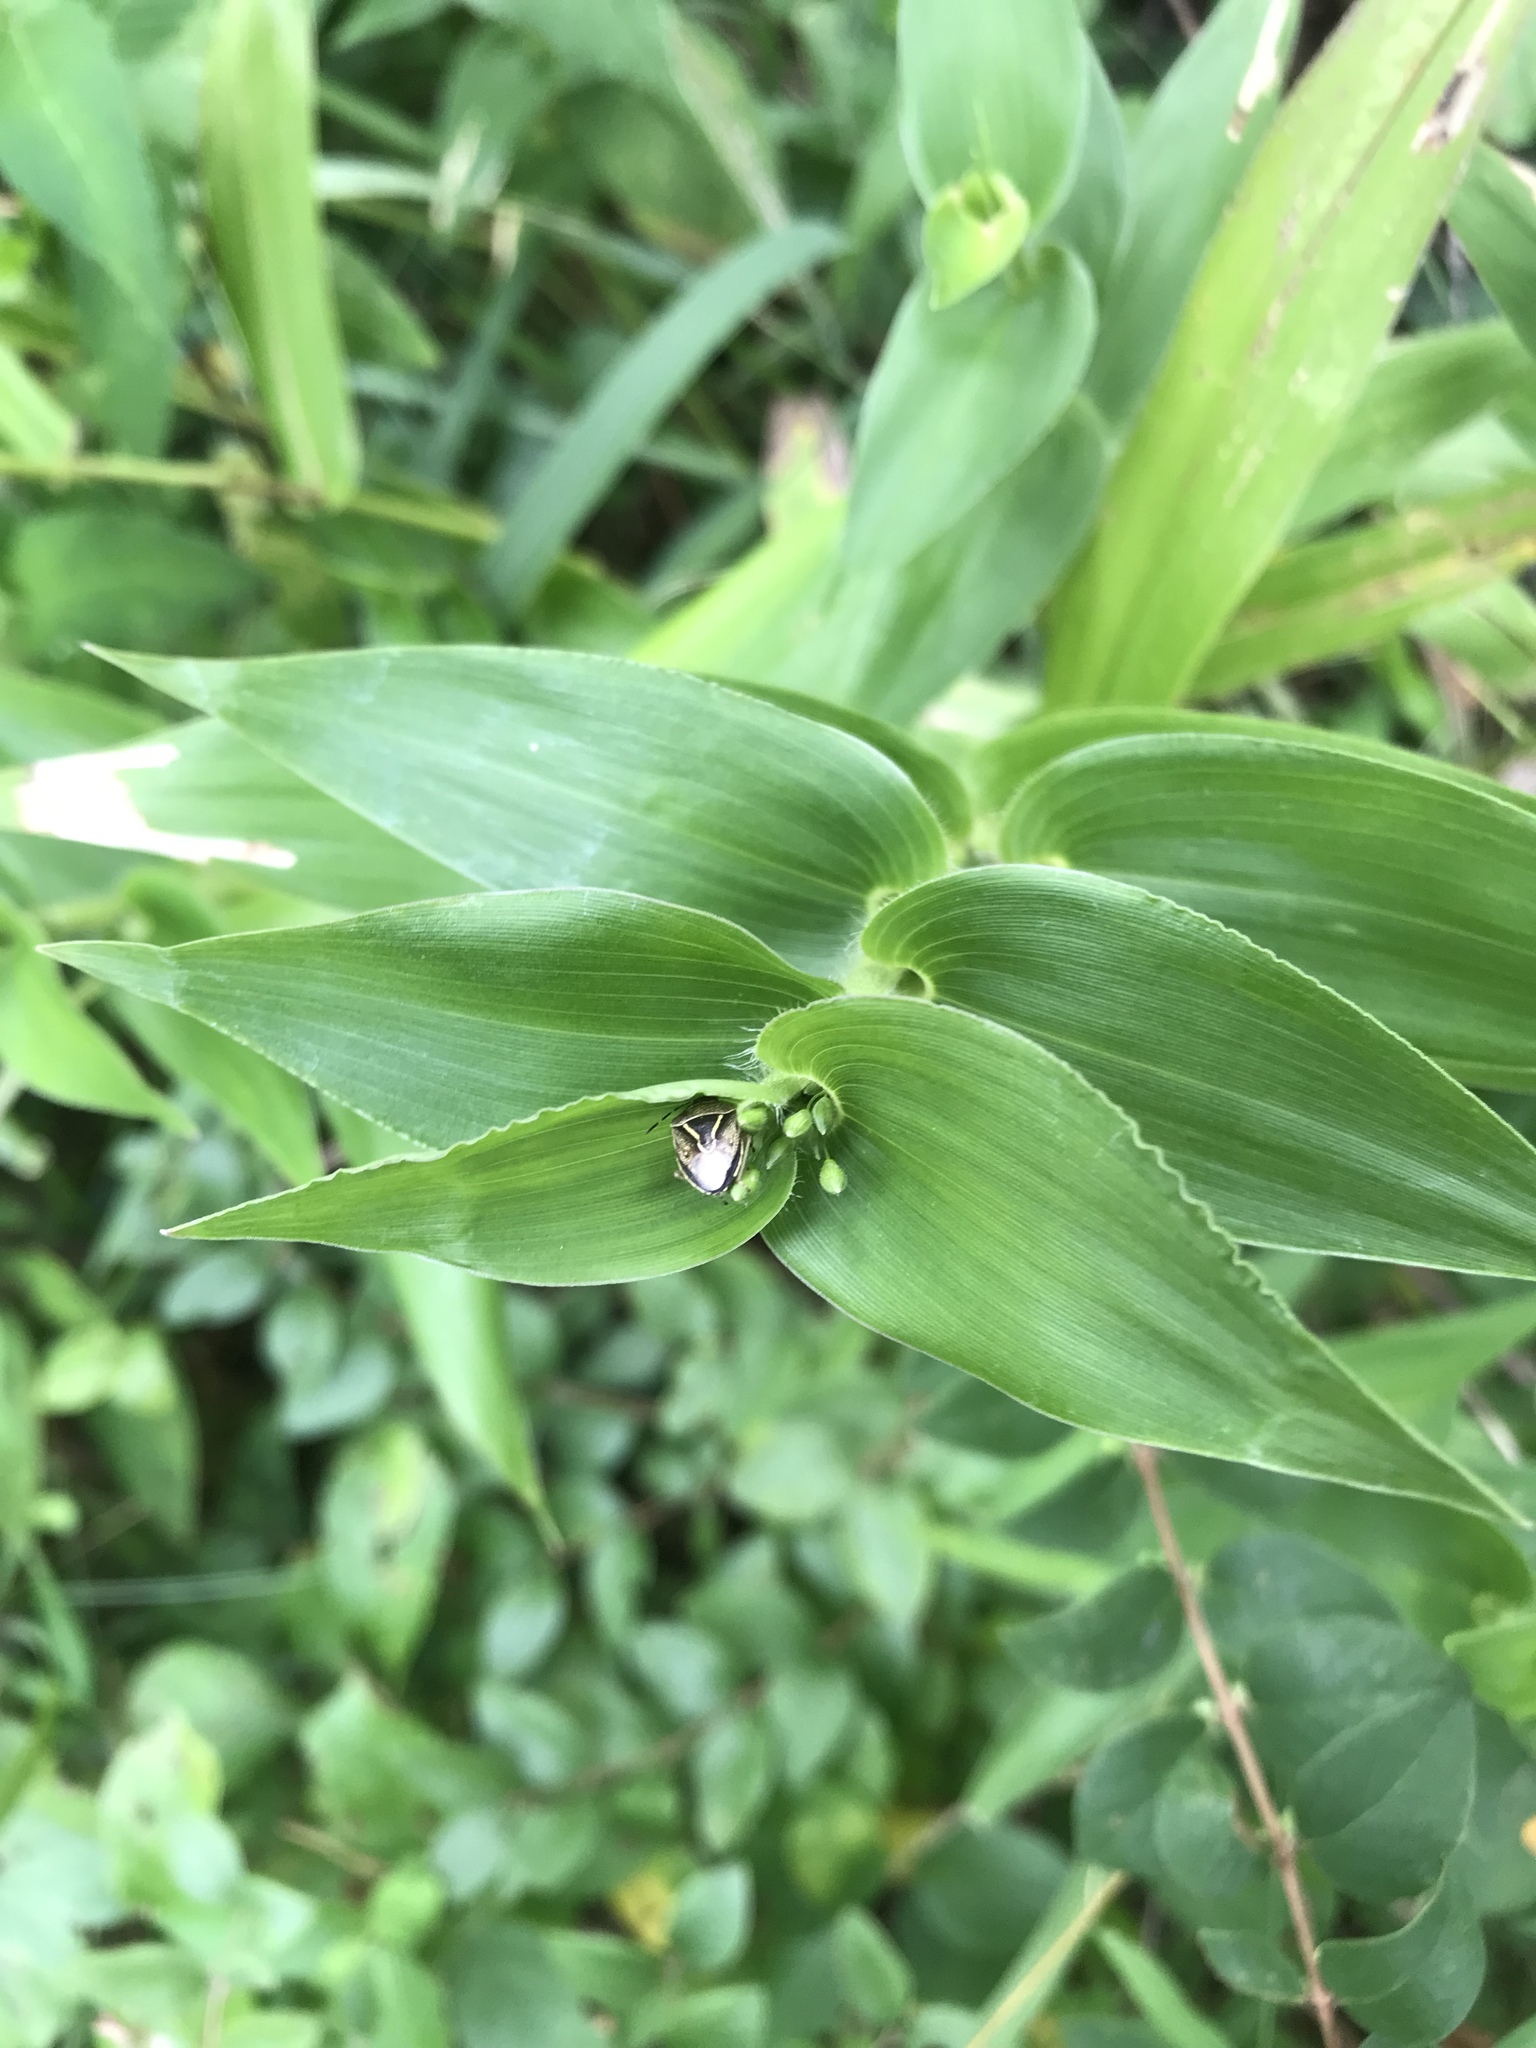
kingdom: Animalia
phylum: Arthropoda
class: Insecta
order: Hemiptera
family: Pentatomidae
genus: Mormidea
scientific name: Mormidea lugens
